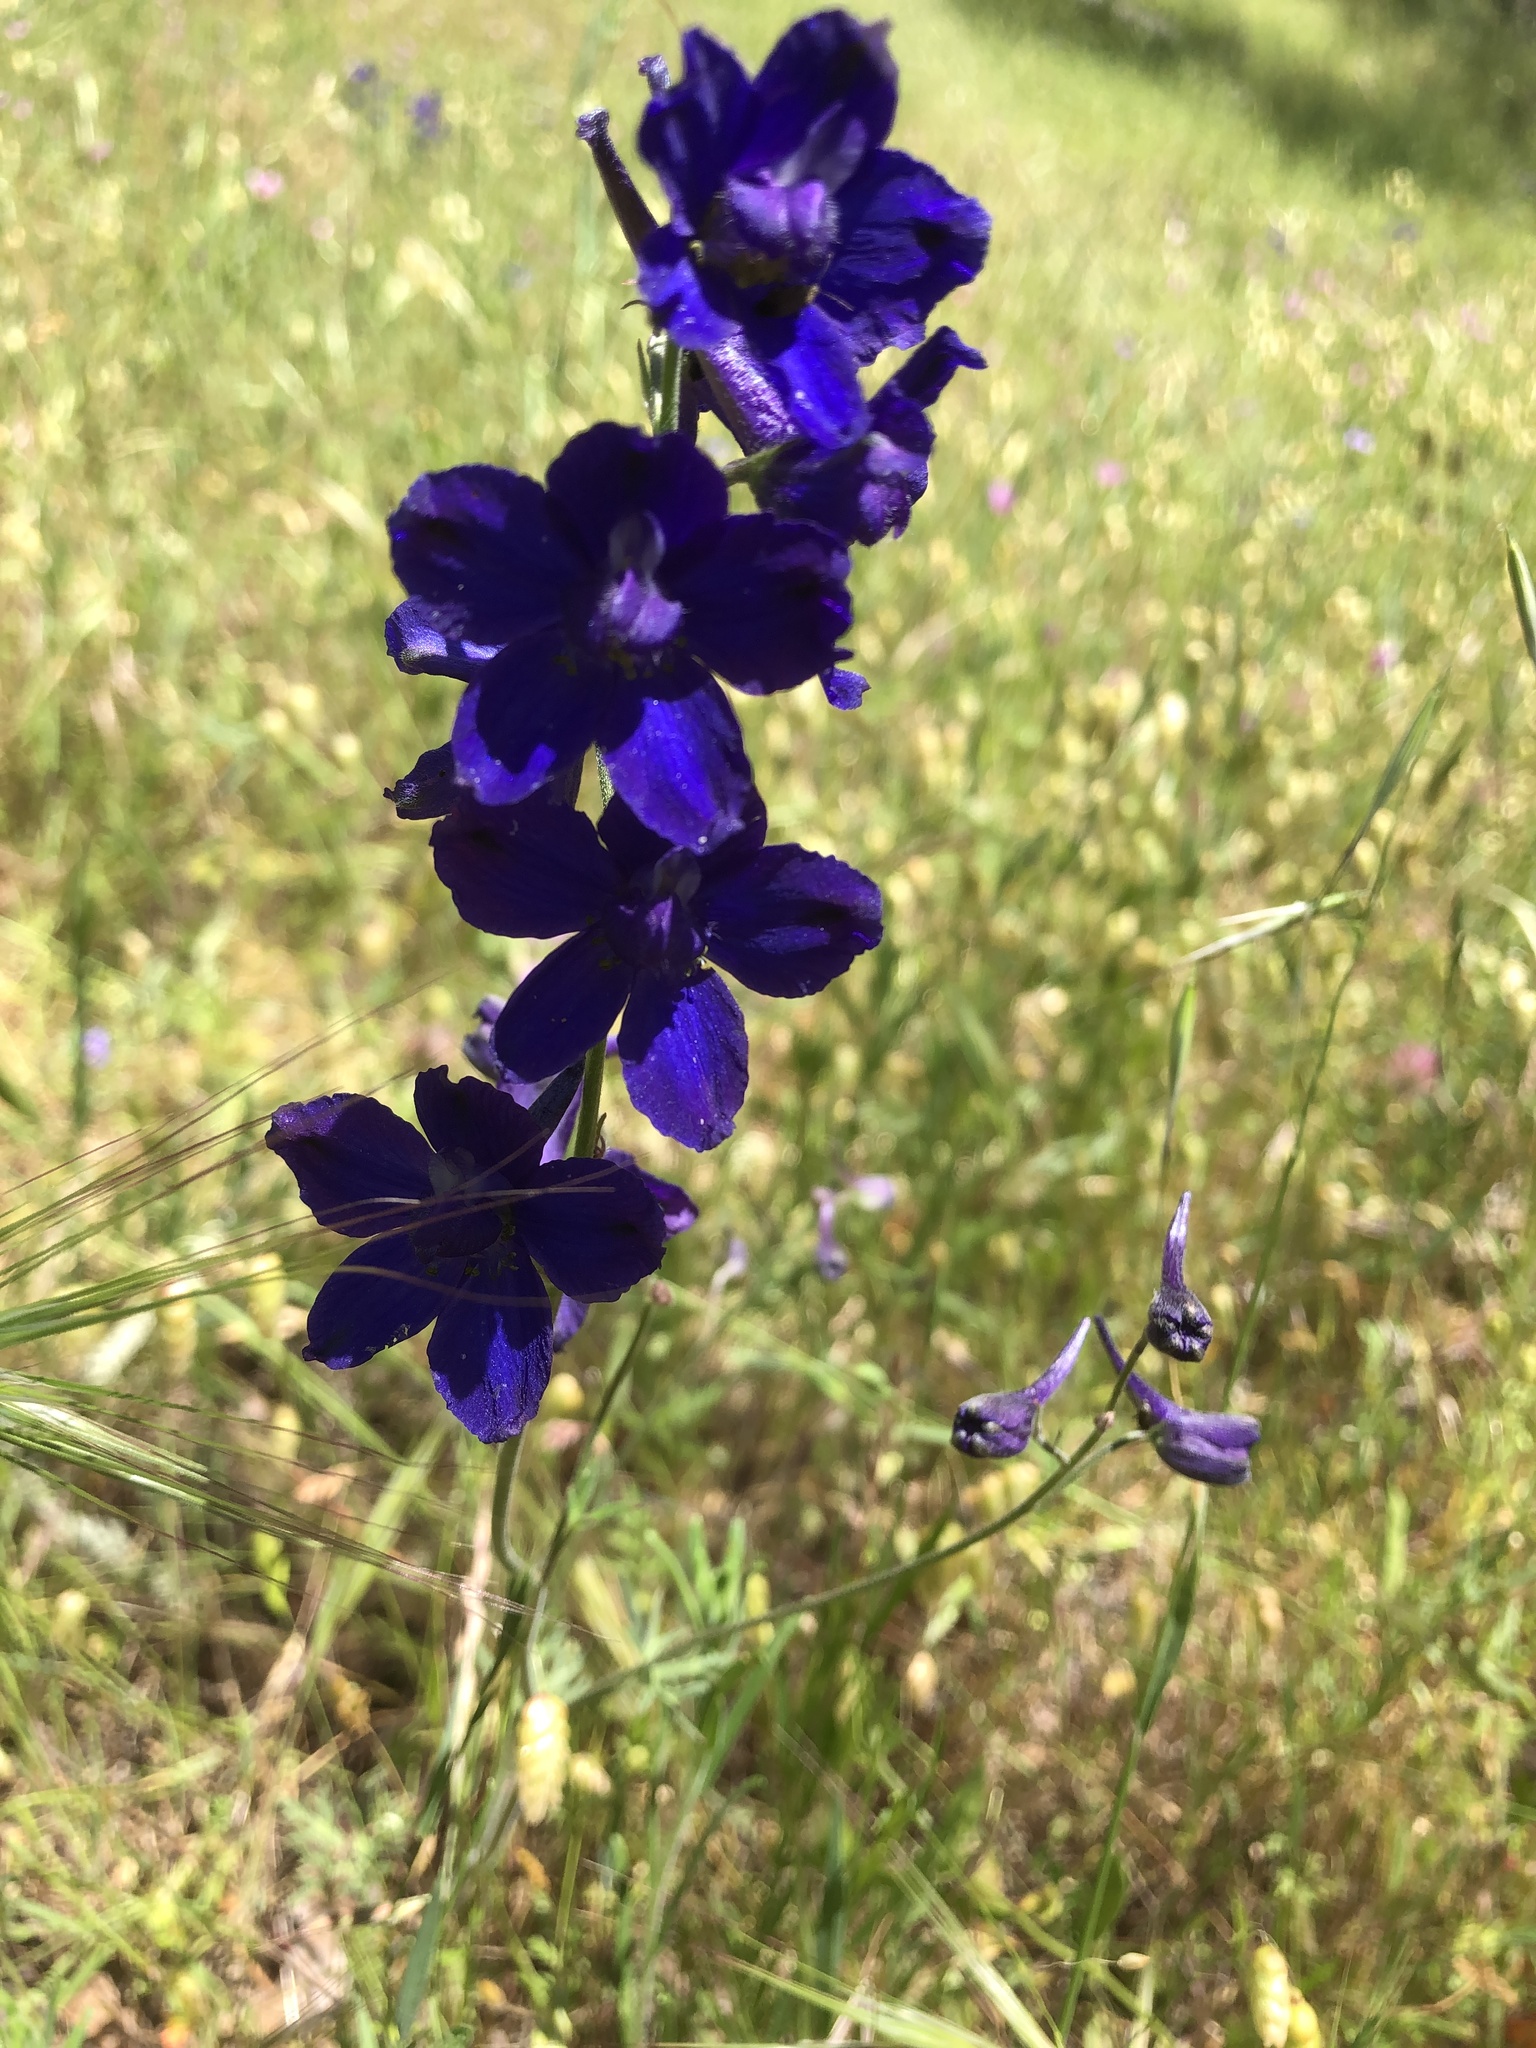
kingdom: Plantae
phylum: Tracheophyta
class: Magnoliopsida
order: Ranunculales
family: Ranunculaceae
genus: Delphinium
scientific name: Delphinium variegatum
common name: Royal larkspur
